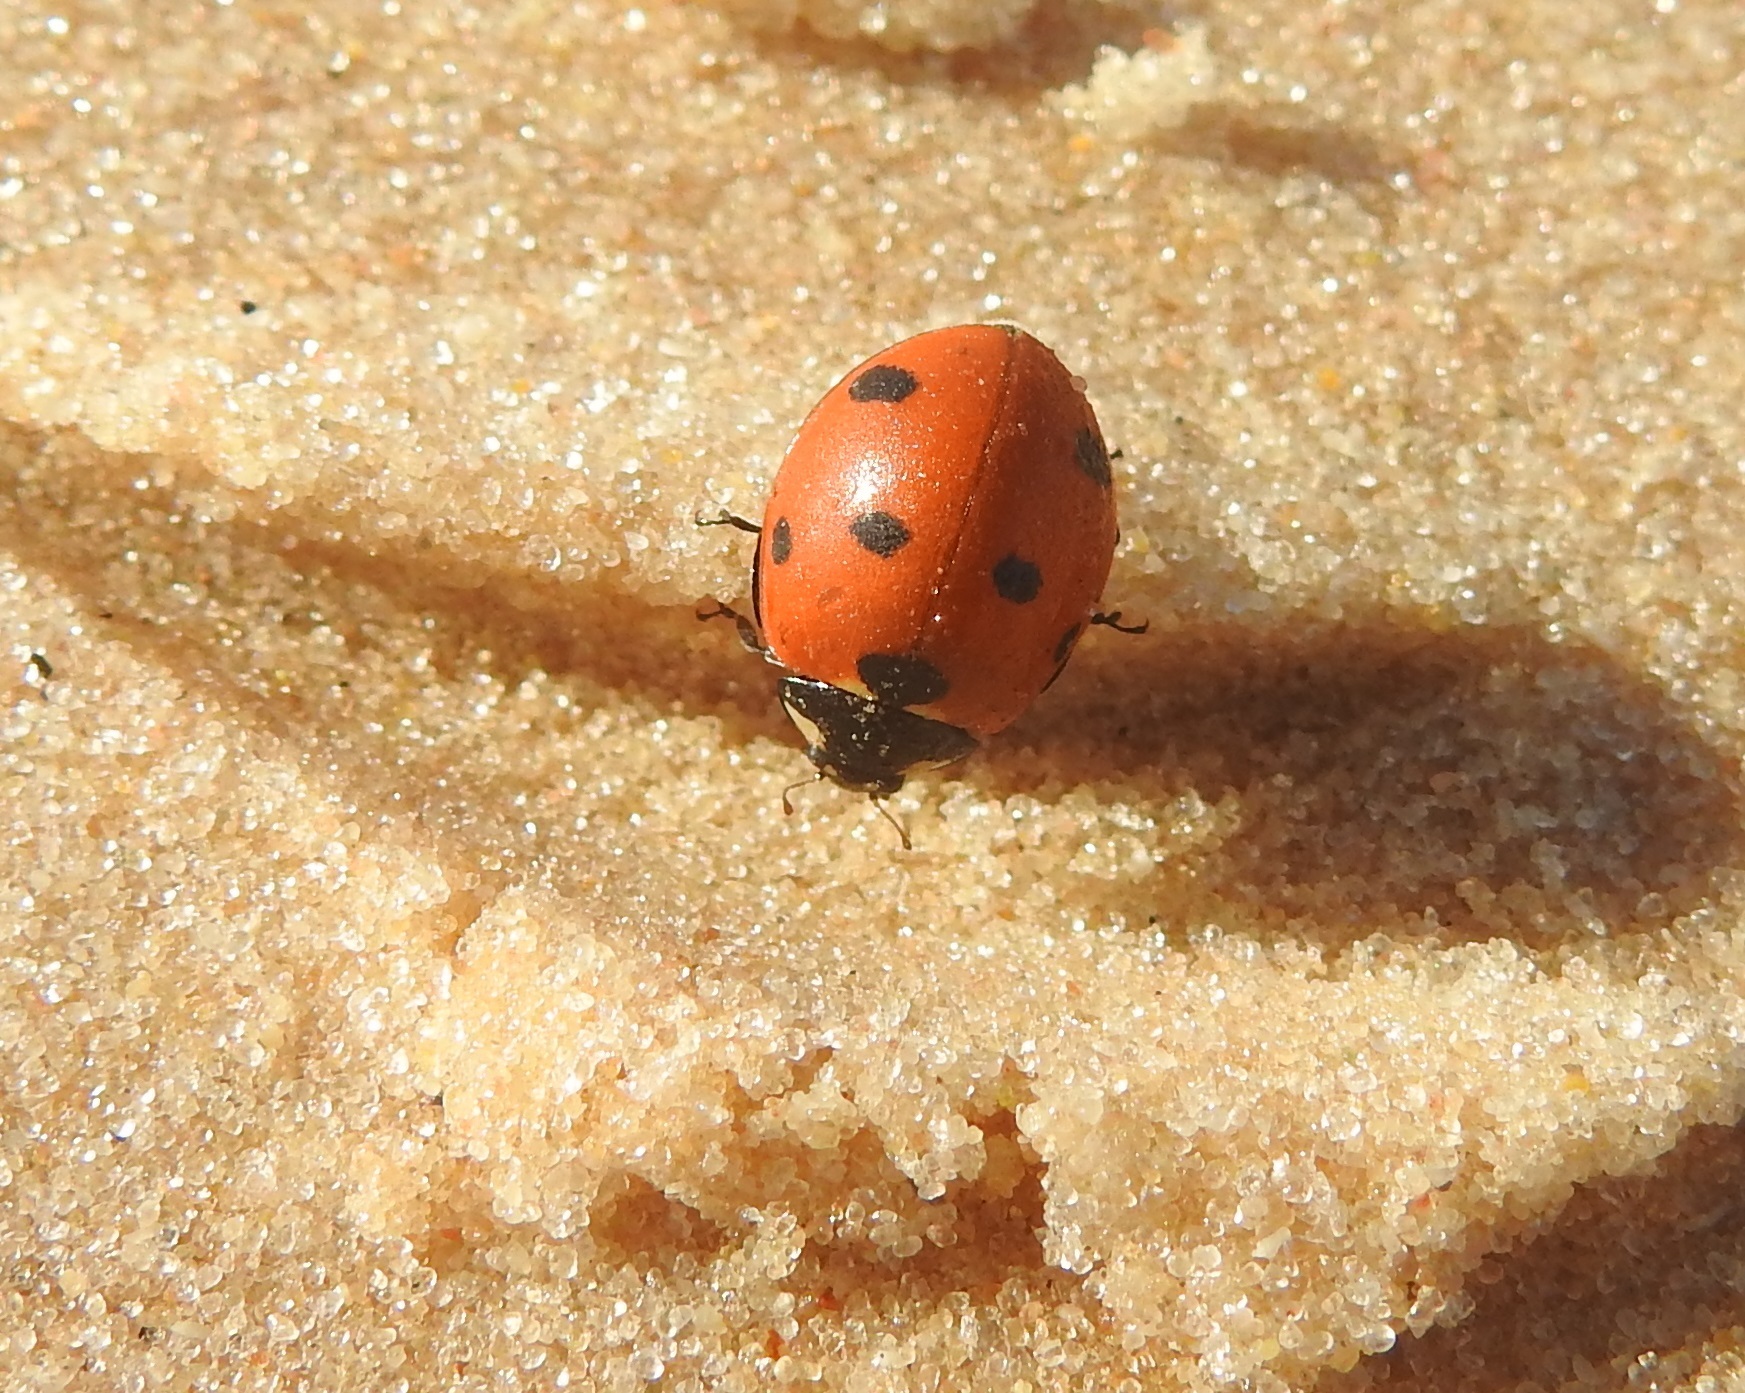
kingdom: Animalia
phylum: Arthropoda
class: Insecta
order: Coleoptera
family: Coccinellidae
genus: Coccinella
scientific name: Coccinella algerica
